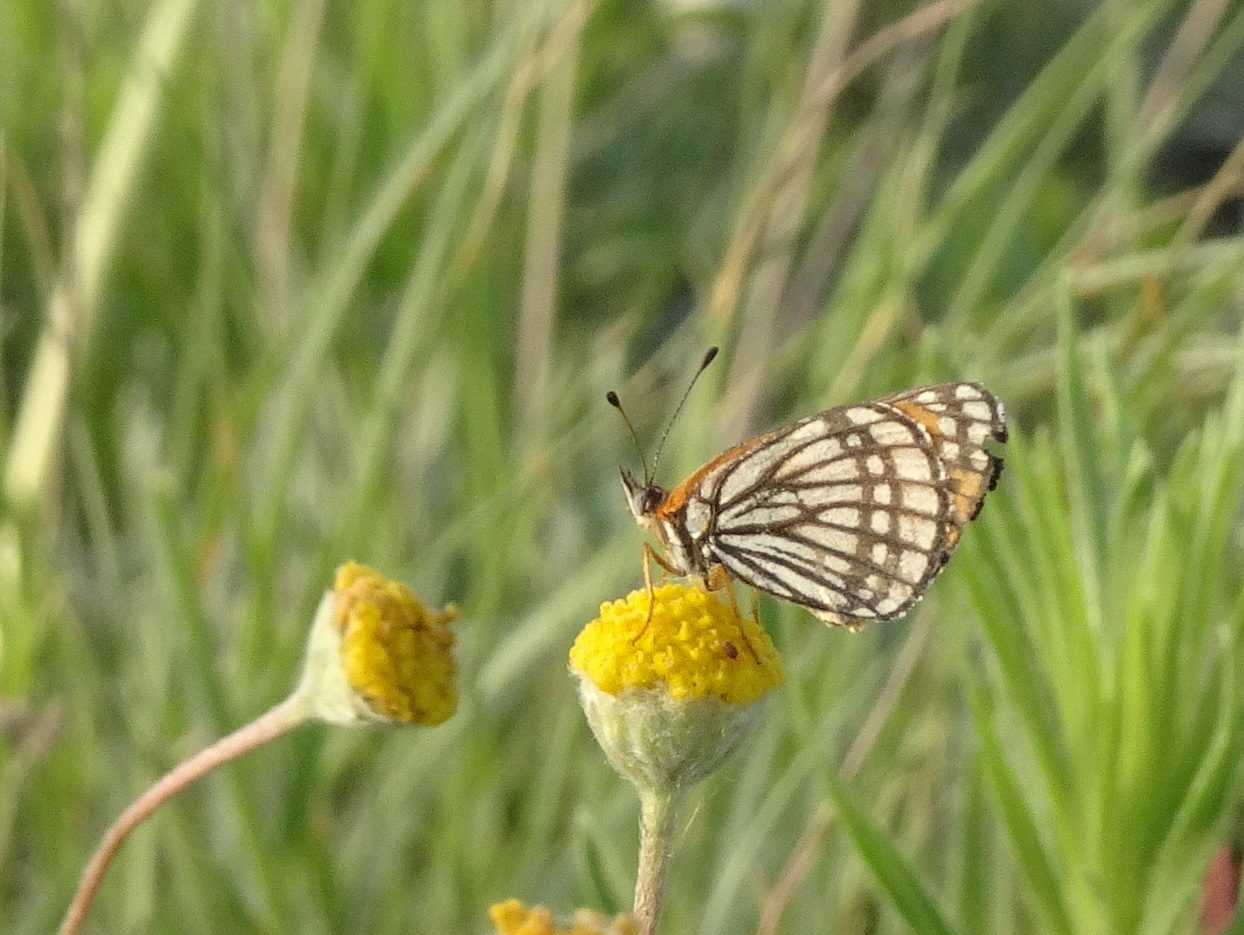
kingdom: Animalia
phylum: Arthropoda
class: Insecta
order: Lepidoptera
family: Nymphalidae
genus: Thessalia
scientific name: Thessalia leanira
